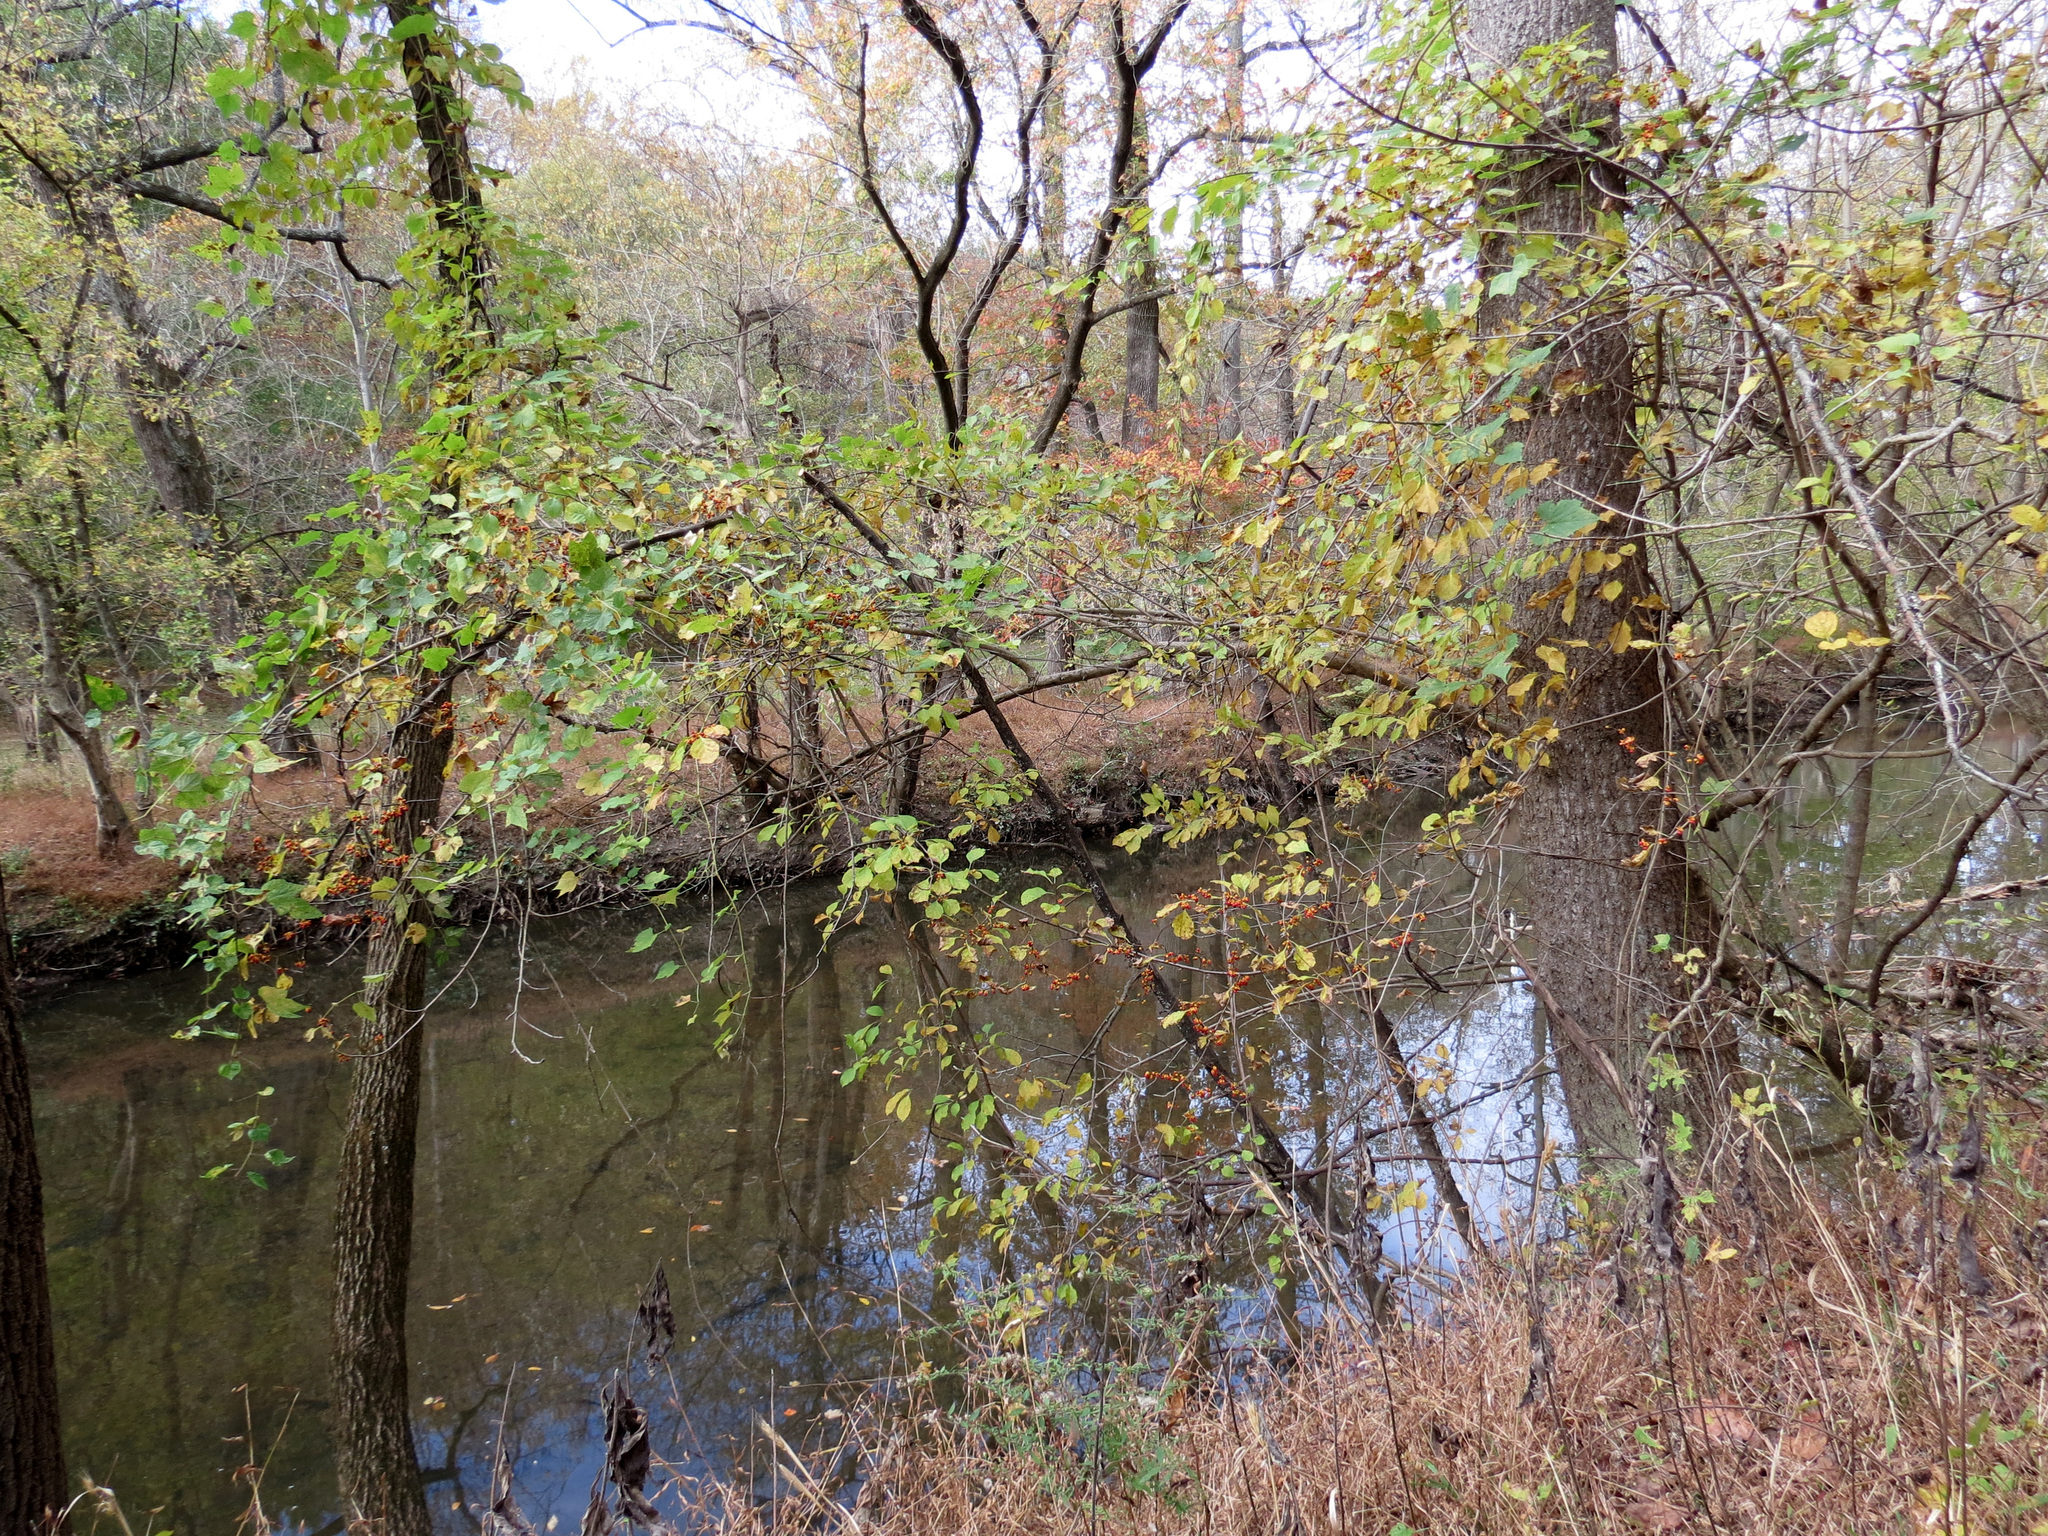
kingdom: Plantae
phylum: Tracheophyta
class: Magnoliopsida
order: Celastrales
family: Celastraceae
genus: Celastrus
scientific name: Celastrus orbiculatus
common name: Oriental bittersweet
